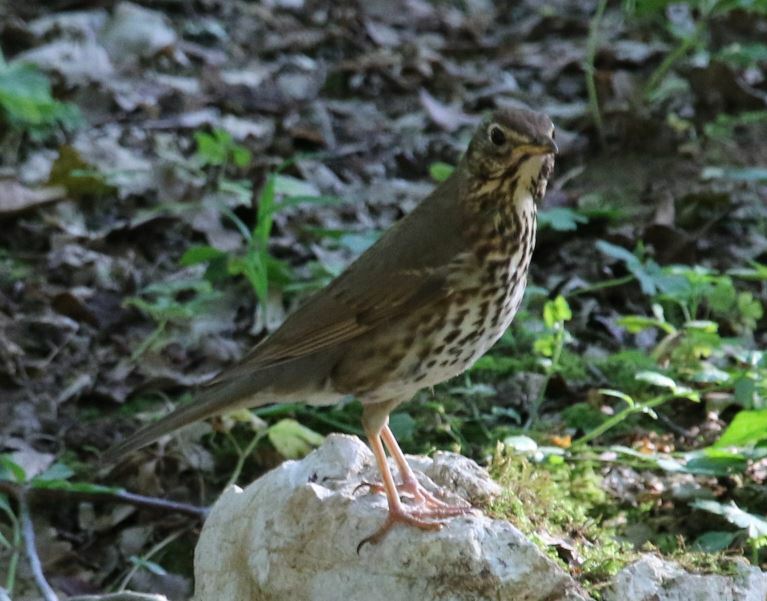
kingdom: Animalia
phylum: Chordata
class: Aves
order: Passeriformes
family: Turdidae
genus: Turdus
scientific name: Turdus philomelos
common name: Song thrush
